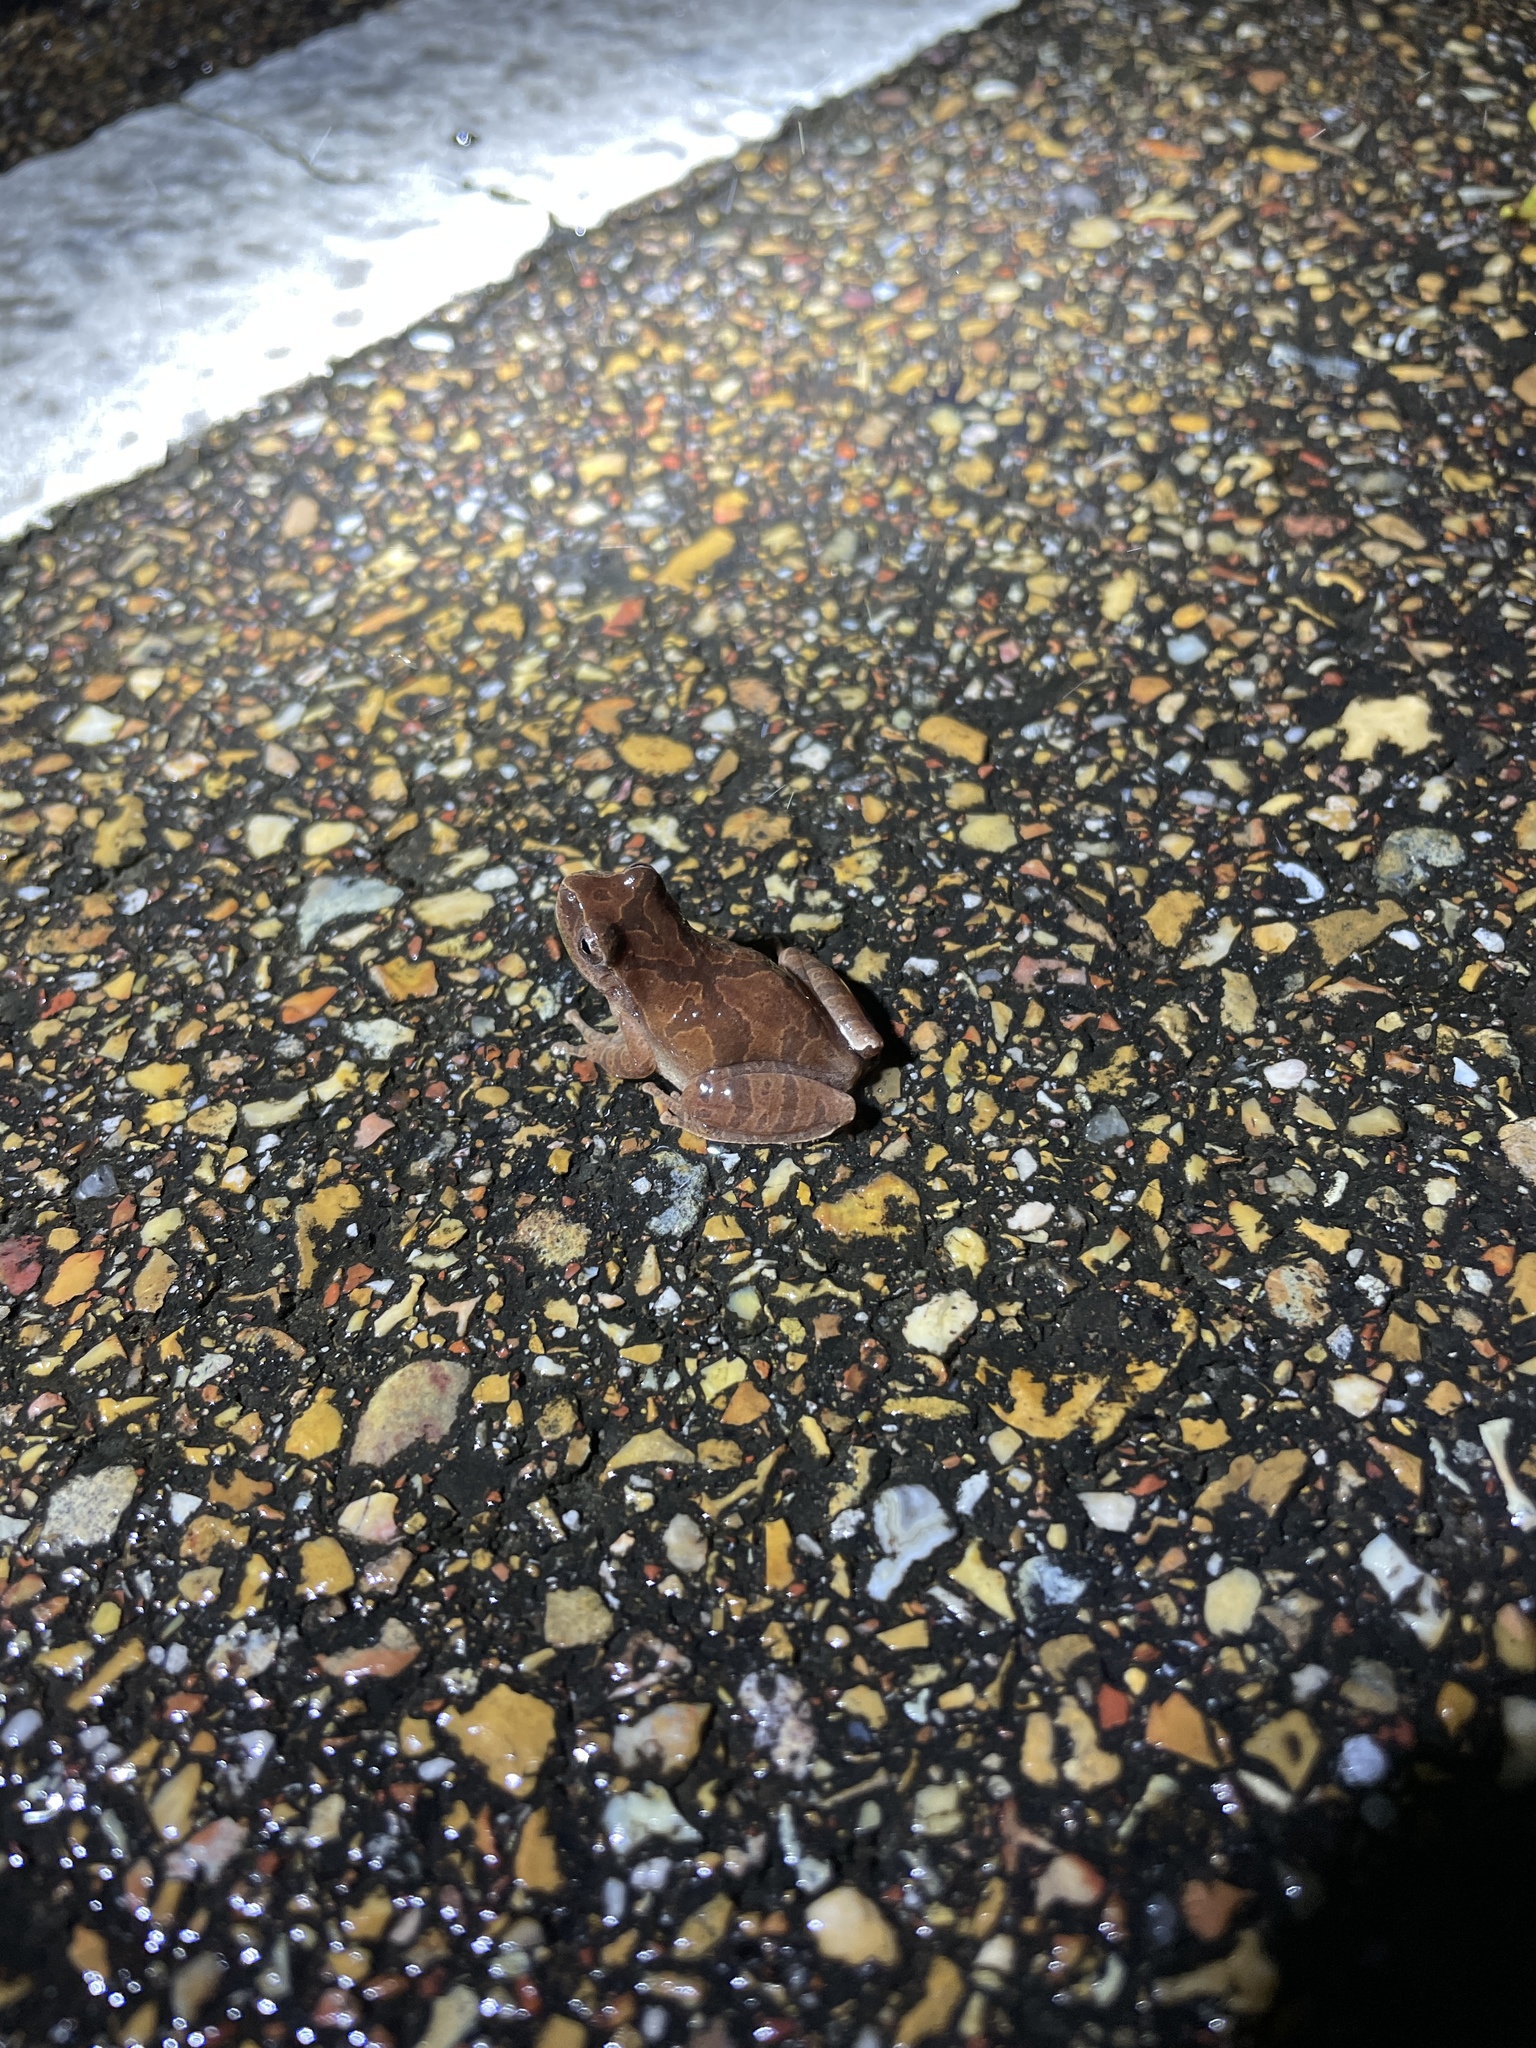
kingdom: Animalia
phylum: Chordata
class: Amphibia
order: Anura
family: Hylidae
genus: Pseudacris
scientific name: Pseudacris crucifer
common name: Spring peeper
